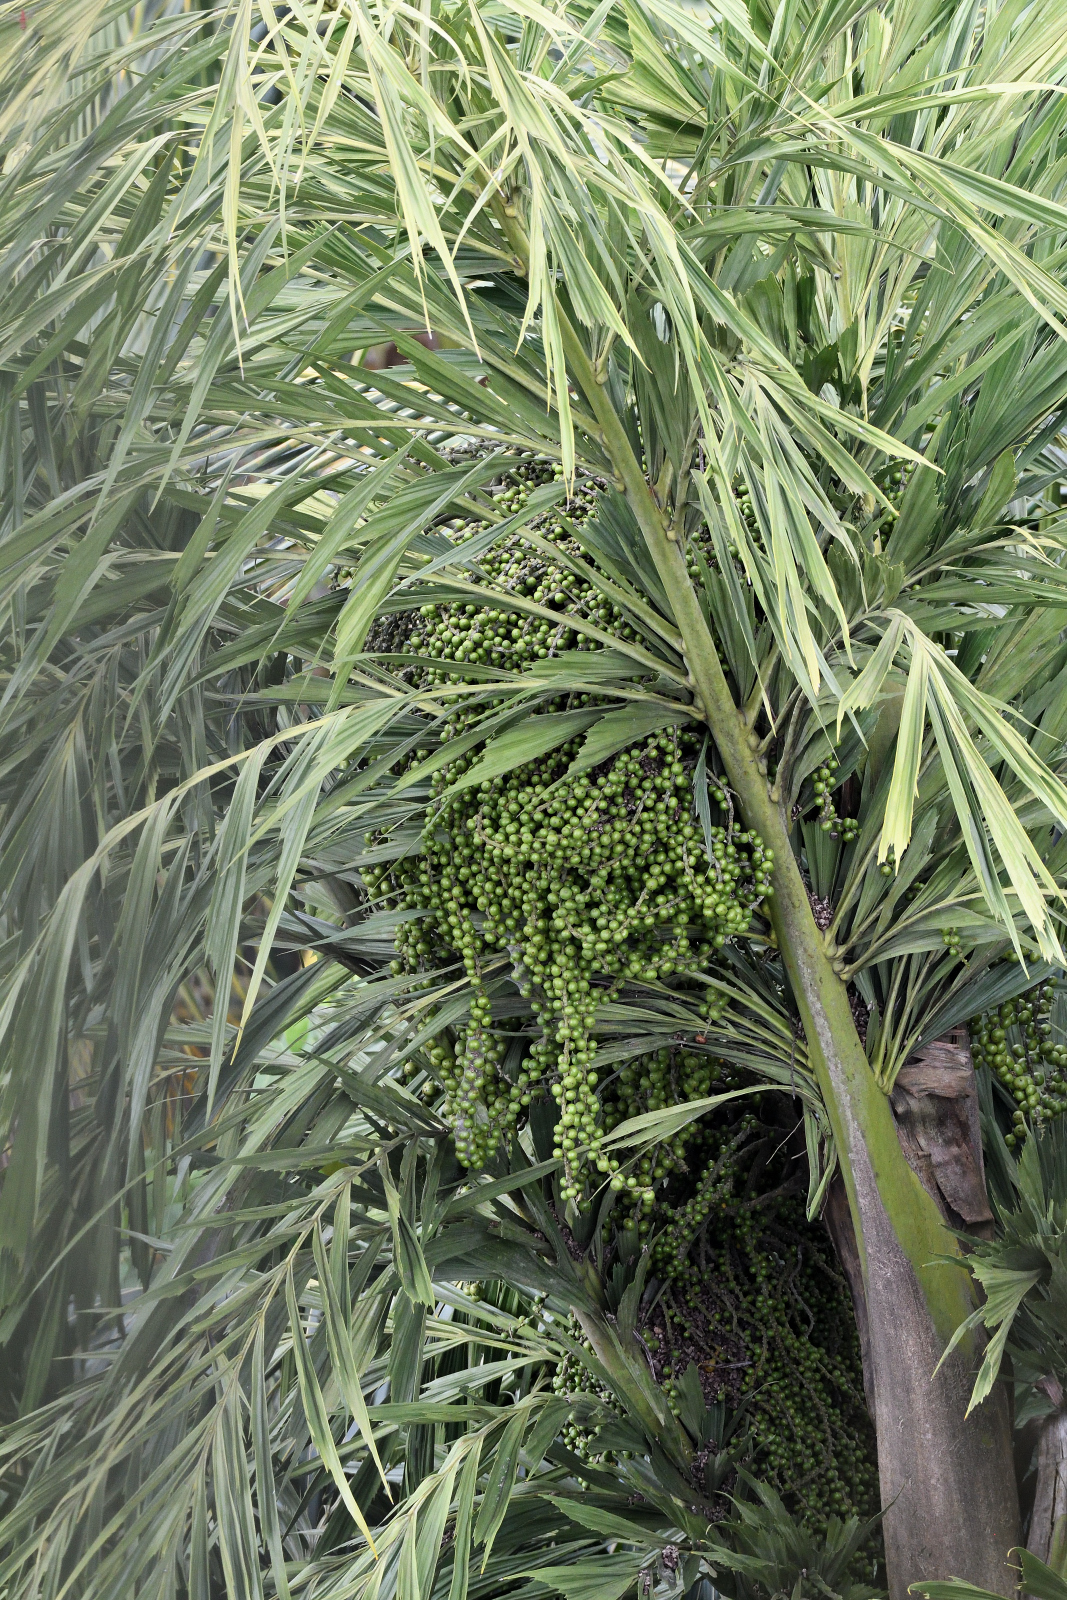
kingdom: Plantae
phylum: Tracheophyta
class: Liliopsida
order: Arecales
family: Arecaceae
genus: Caryota
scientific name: Caryota urens
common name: Jaggery palm
